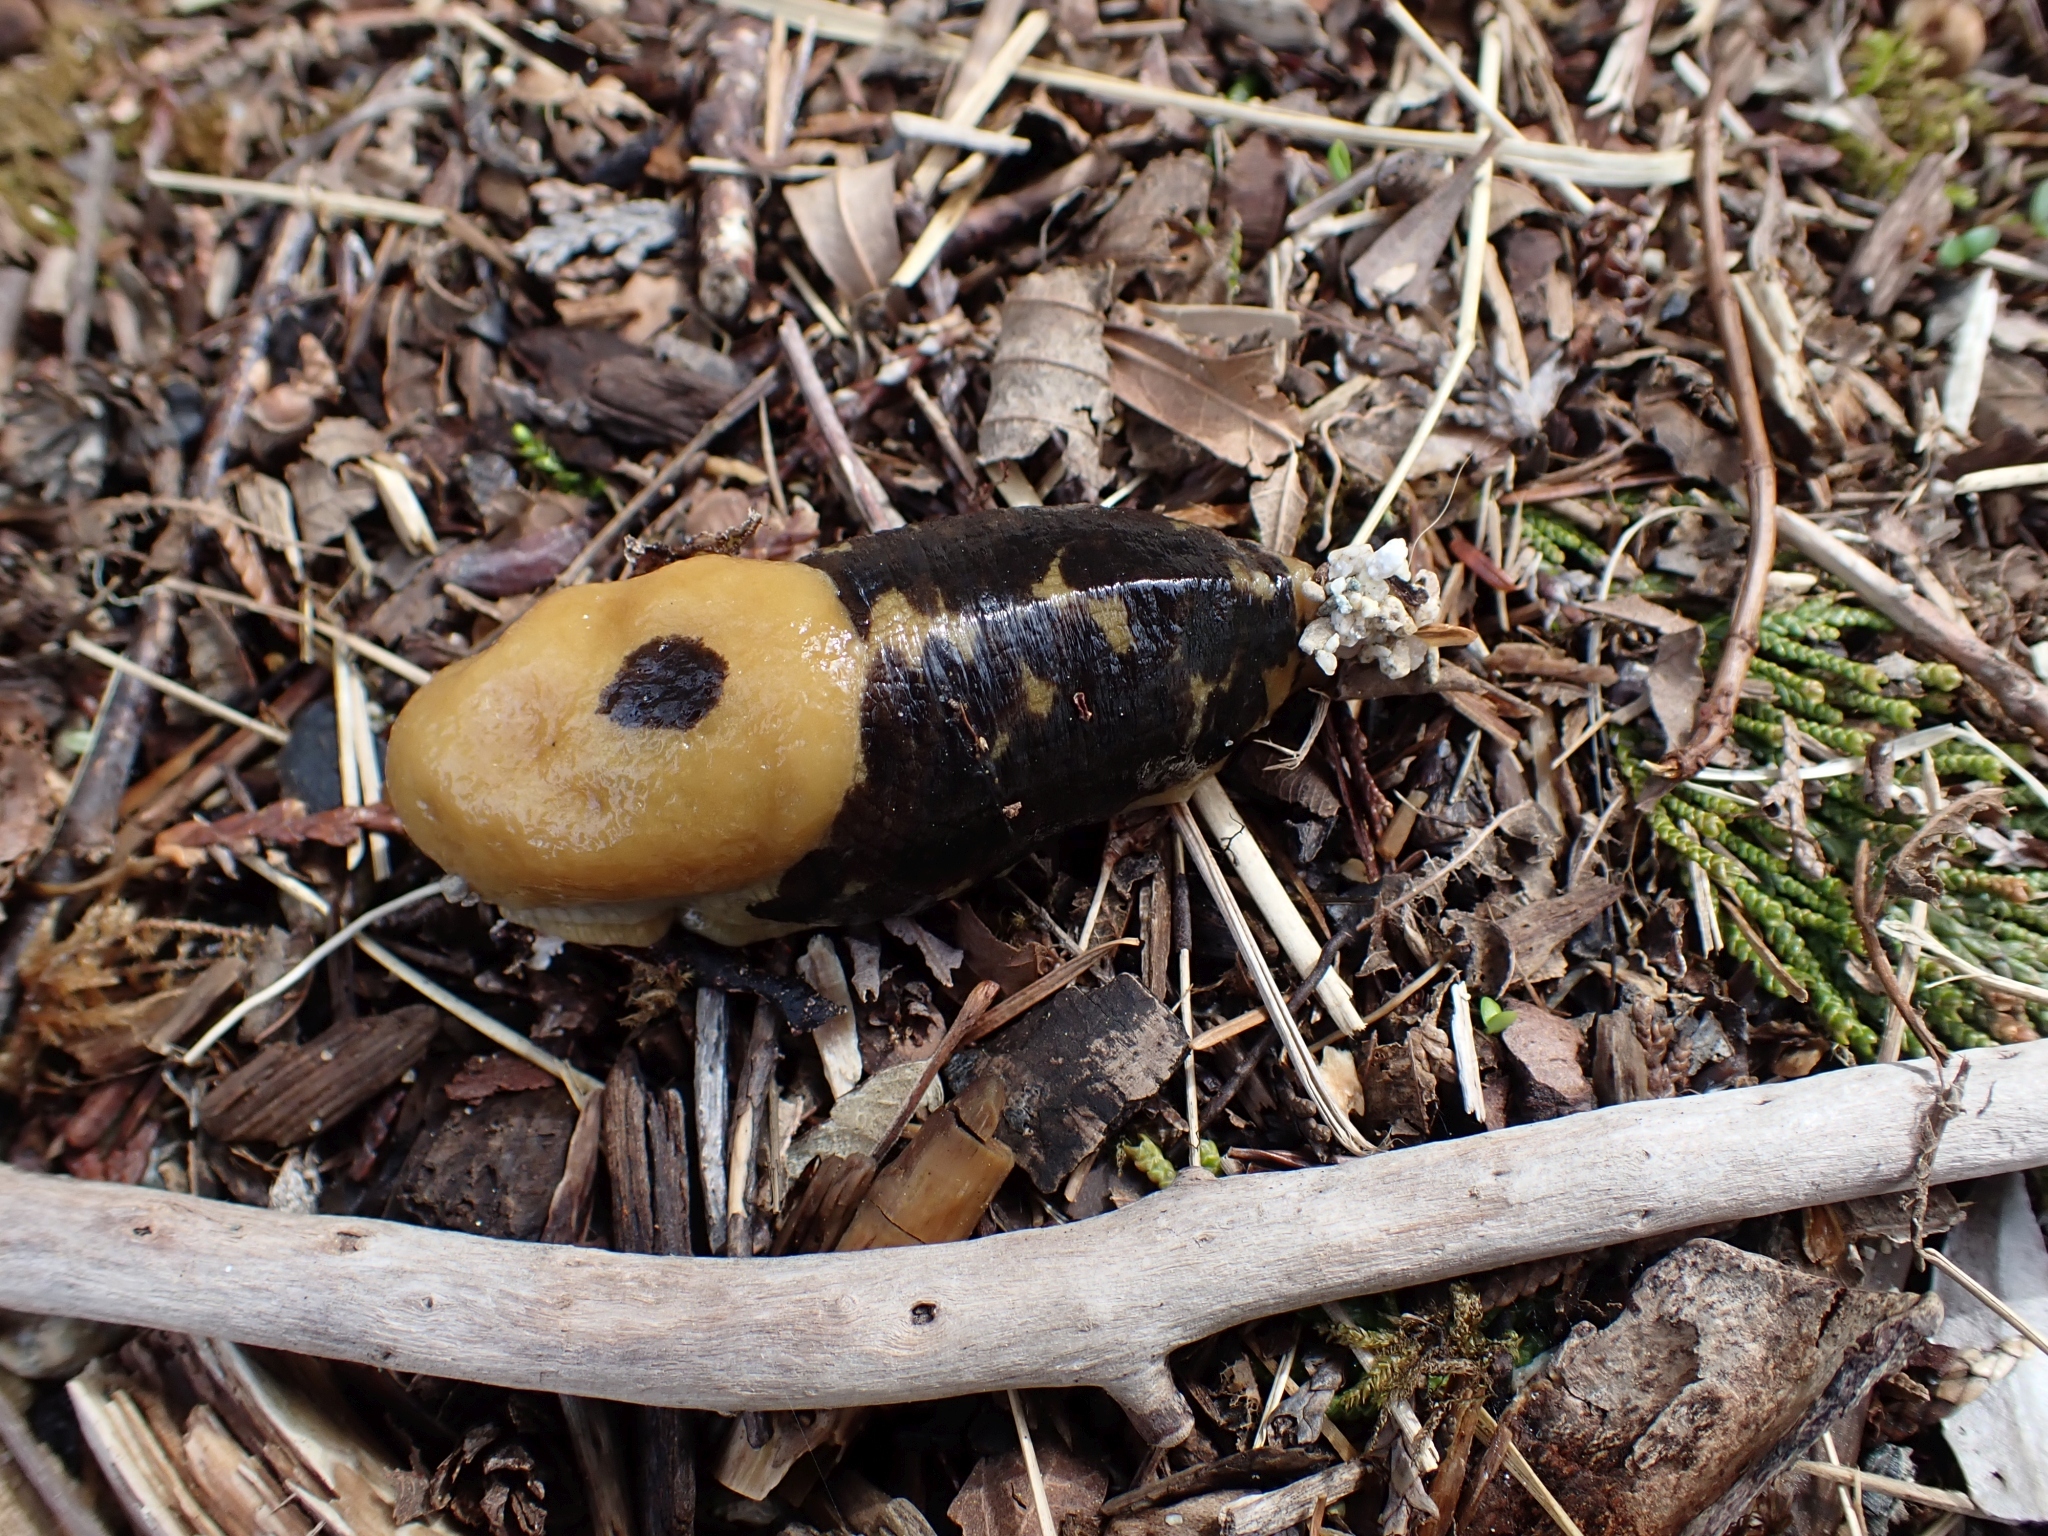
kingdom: Animalia
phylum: Mollusca
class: Gastropoda
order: Stylommatophora
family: Ariolimacidae
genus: Ariolimax
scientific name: Ariolimax columbianus
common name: Pacific banana slug
